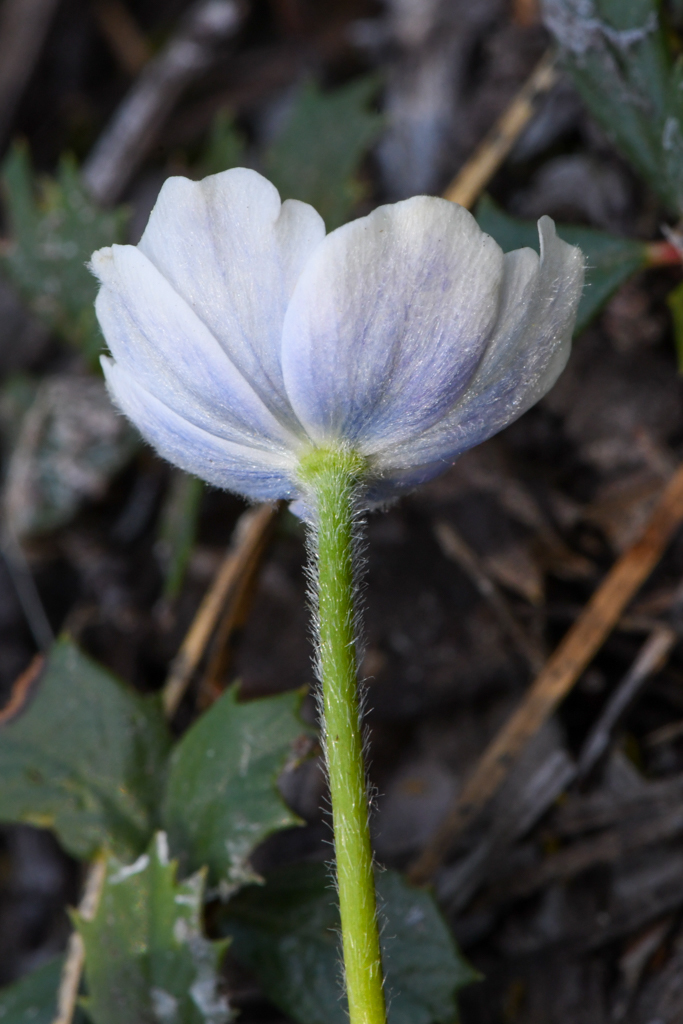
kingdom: Plantae
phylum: Tracheophyta
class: Magnoliopsida
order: Ranunculales
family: Ranunculaceae
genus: Anemone
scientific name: Anemone drummondii
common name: Drummond's anemone
